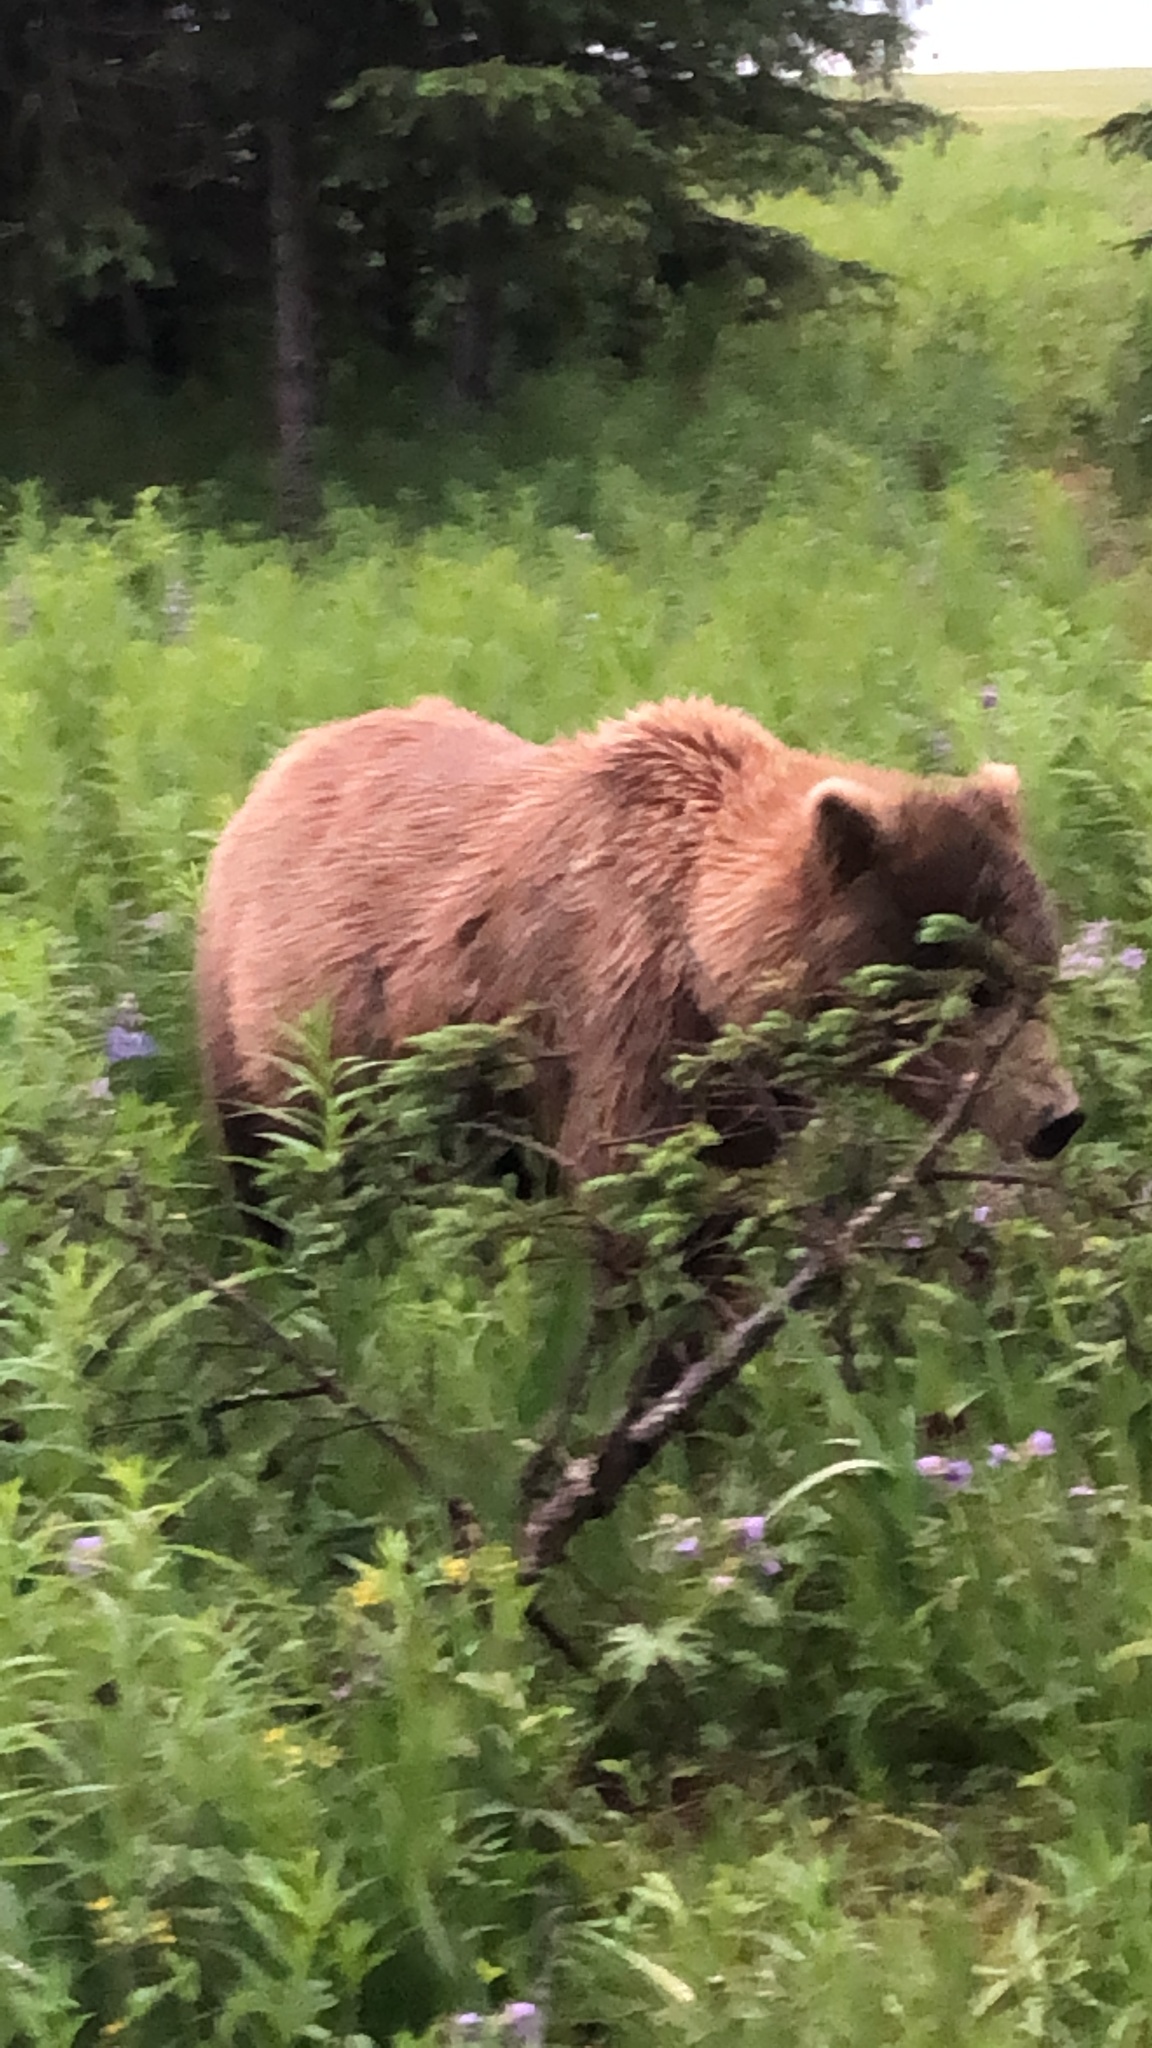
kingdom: Animalia
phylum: Chordata
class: Mammalia
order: Carnivora
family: Ursidae
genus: Ursus
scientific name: Ursus arctos
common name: Brown bear
